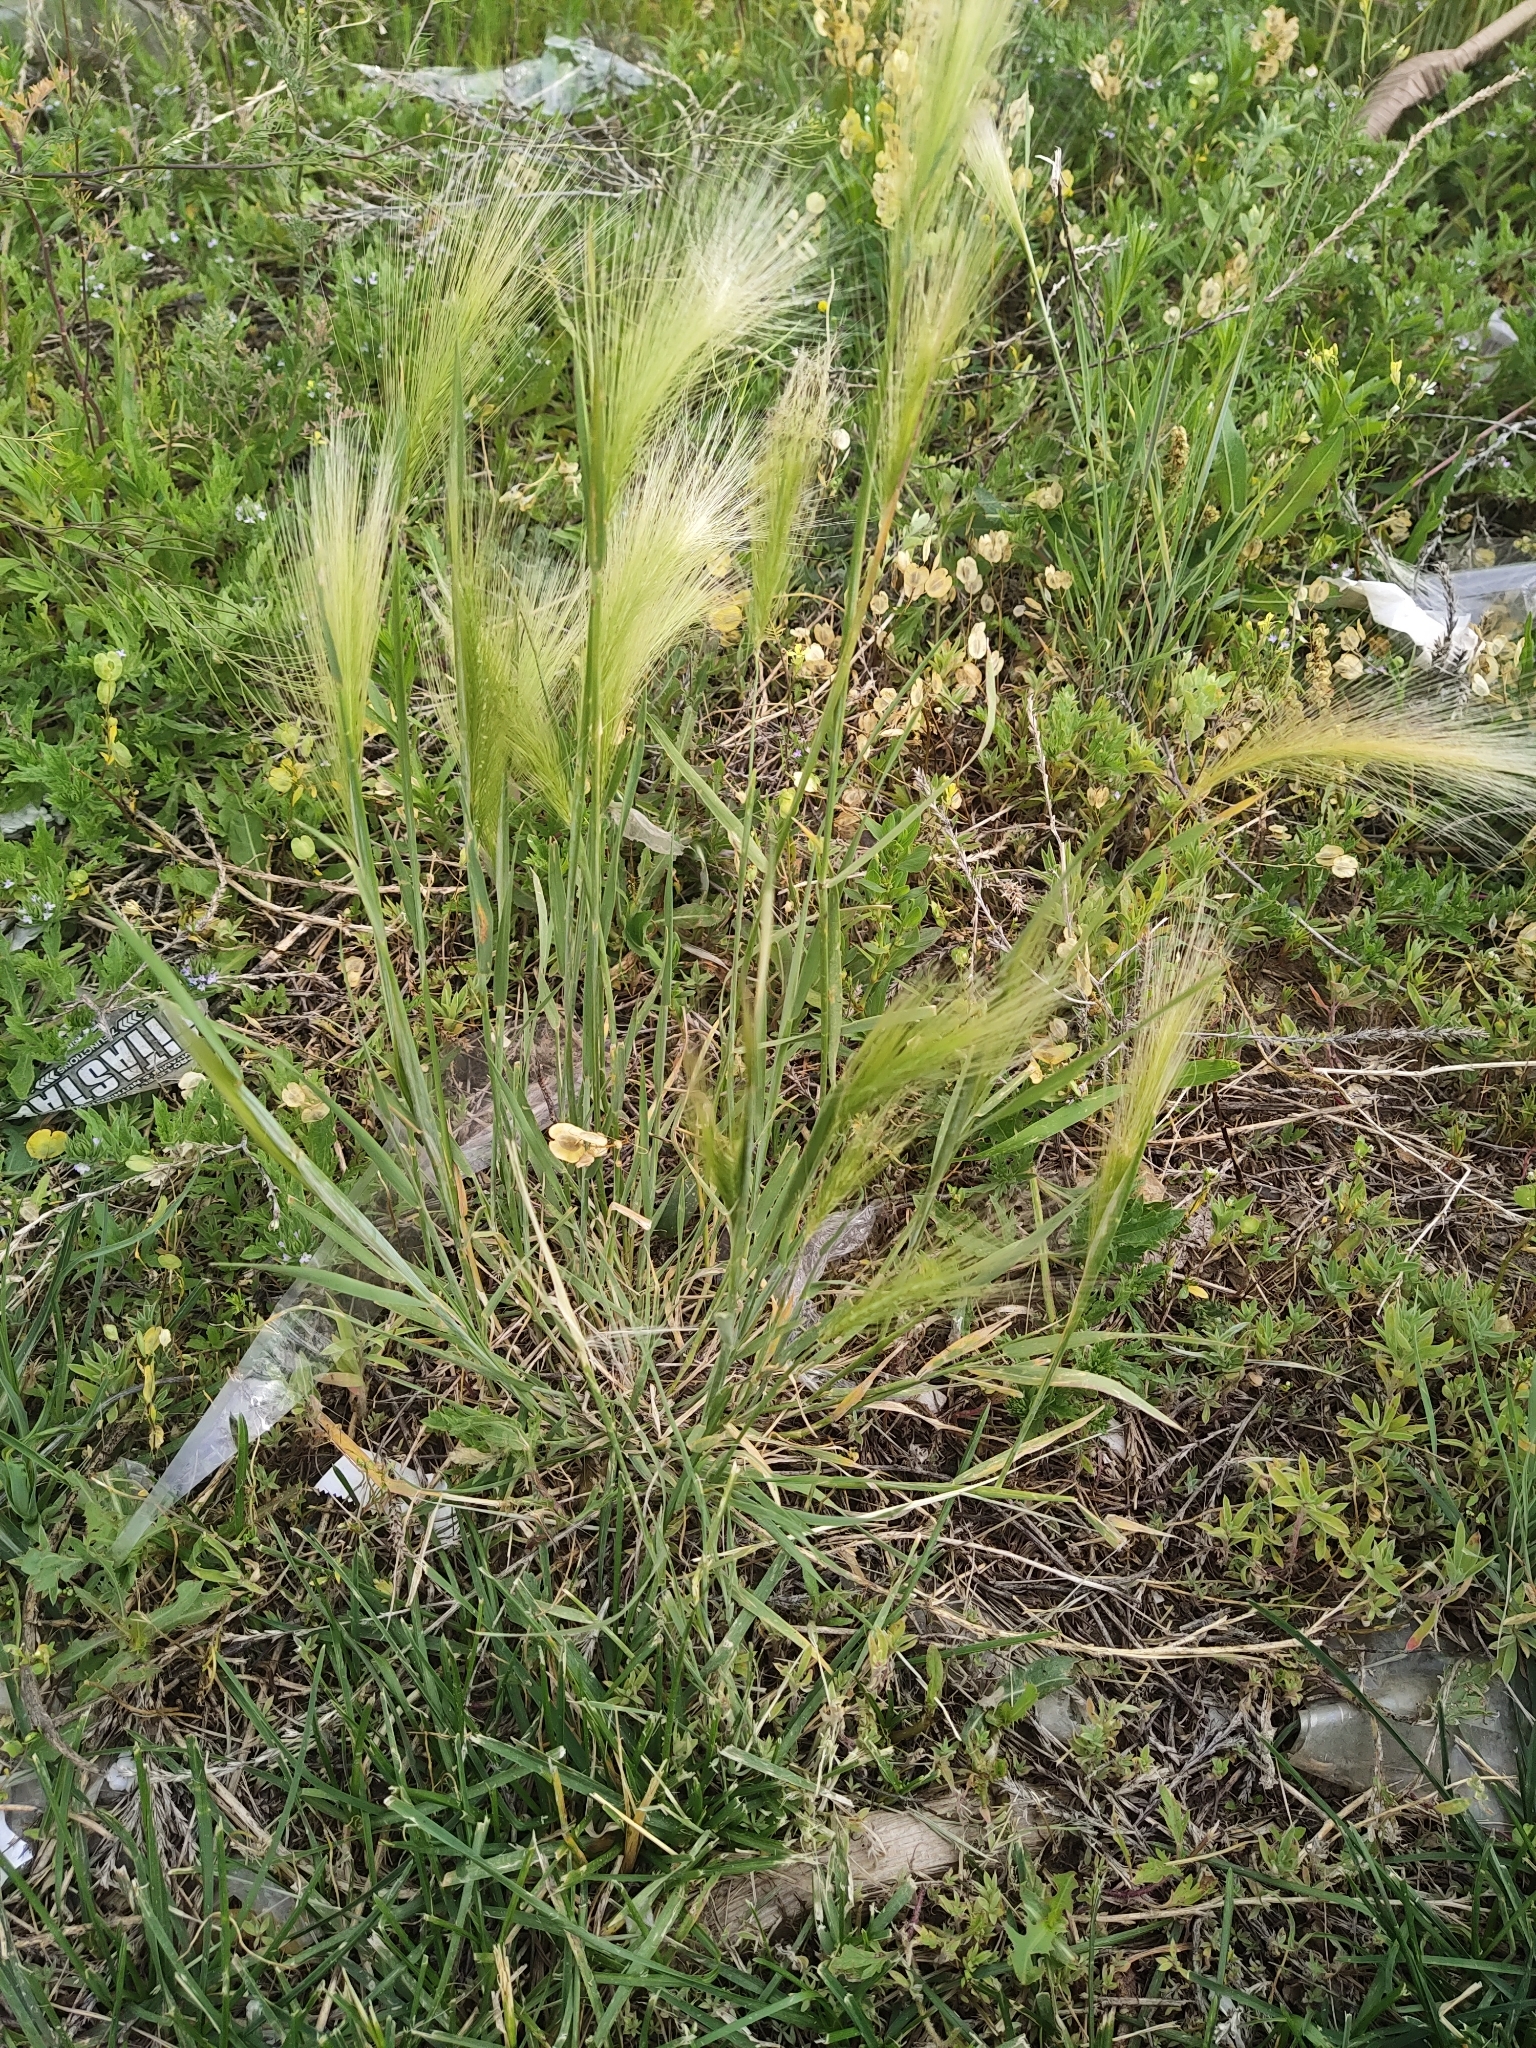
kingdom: Plantae
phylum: Tracheophyta
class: Liliopsida
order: Poales
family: Poaceae
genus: Hordeum
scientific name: Hordeum jubatum
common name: Foxtail barley
